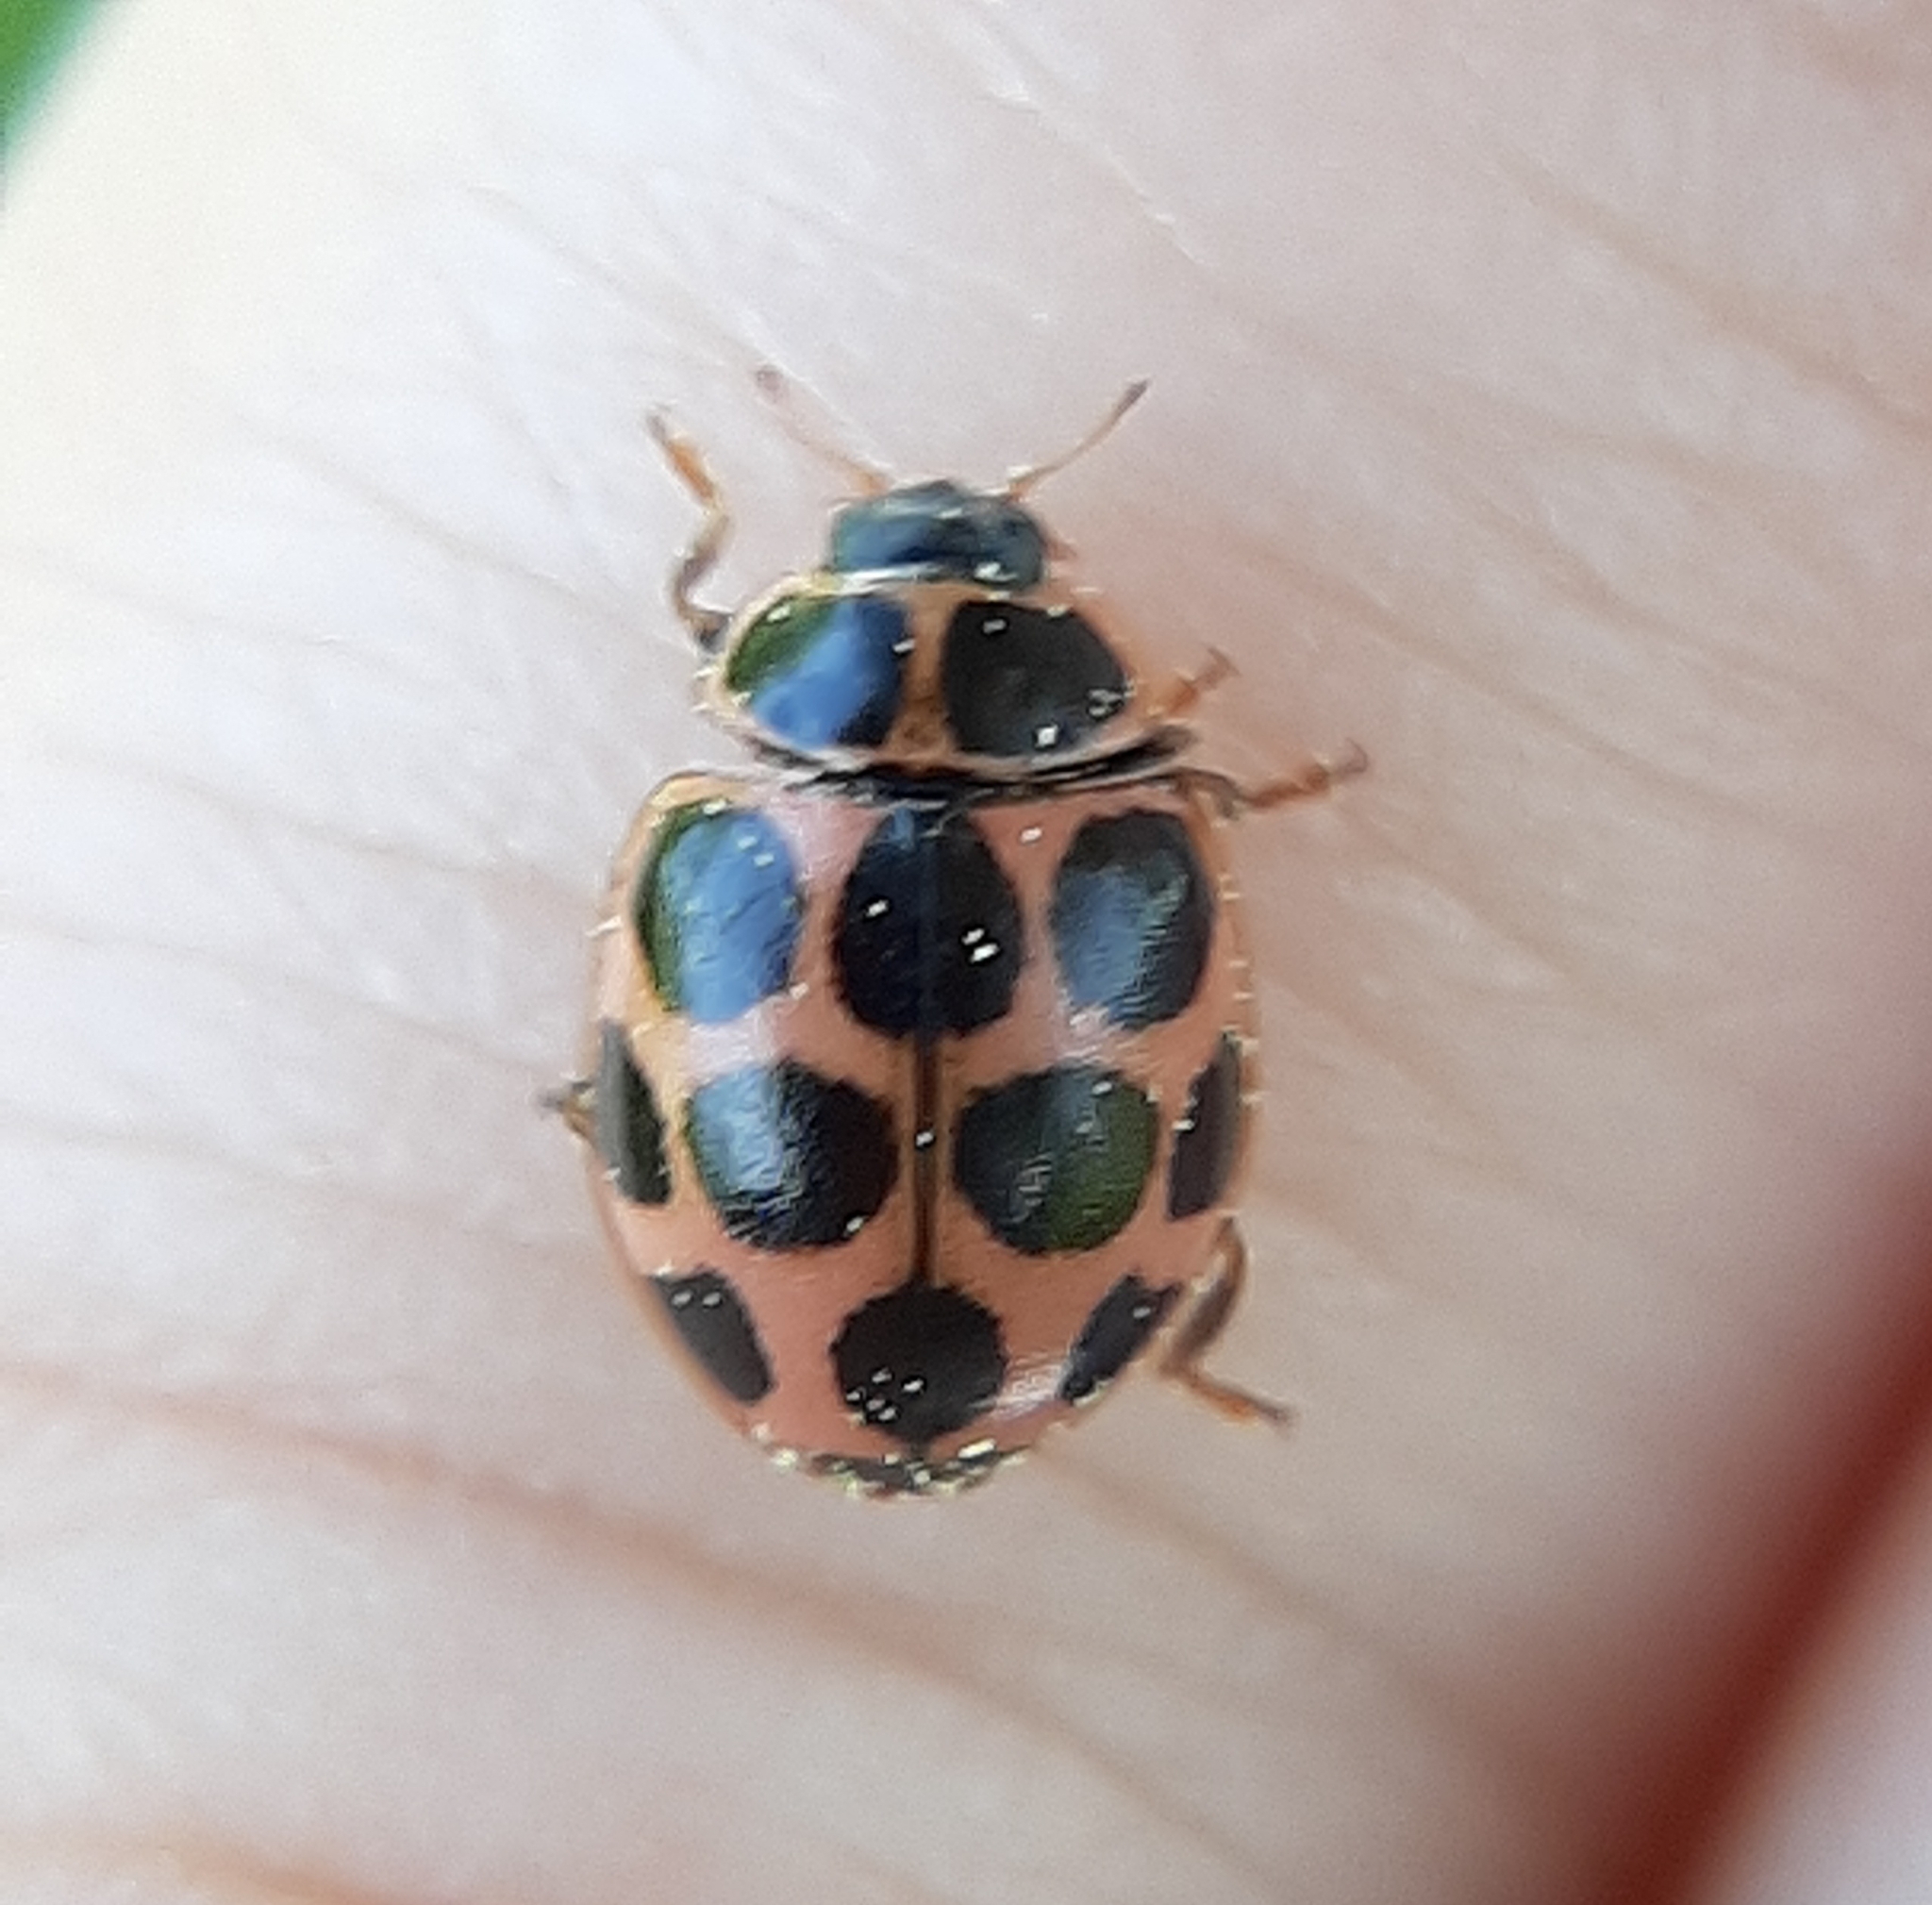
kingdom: Animalia
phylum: Arthropoda
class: Insecta
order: Coleoptera
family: Coccinellidae
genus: Calvia
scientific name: Calvia quatuordecimguttata
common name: Cream-spot ladybird
